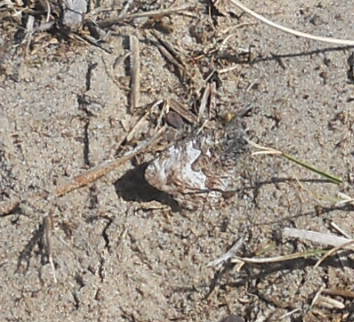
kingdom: Animalia
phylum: Arthropoda
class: Insecta
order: Lepidoptera
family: Nymphalidae
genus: Hipparchia
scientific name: Hipparchia semele
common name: Grayling
